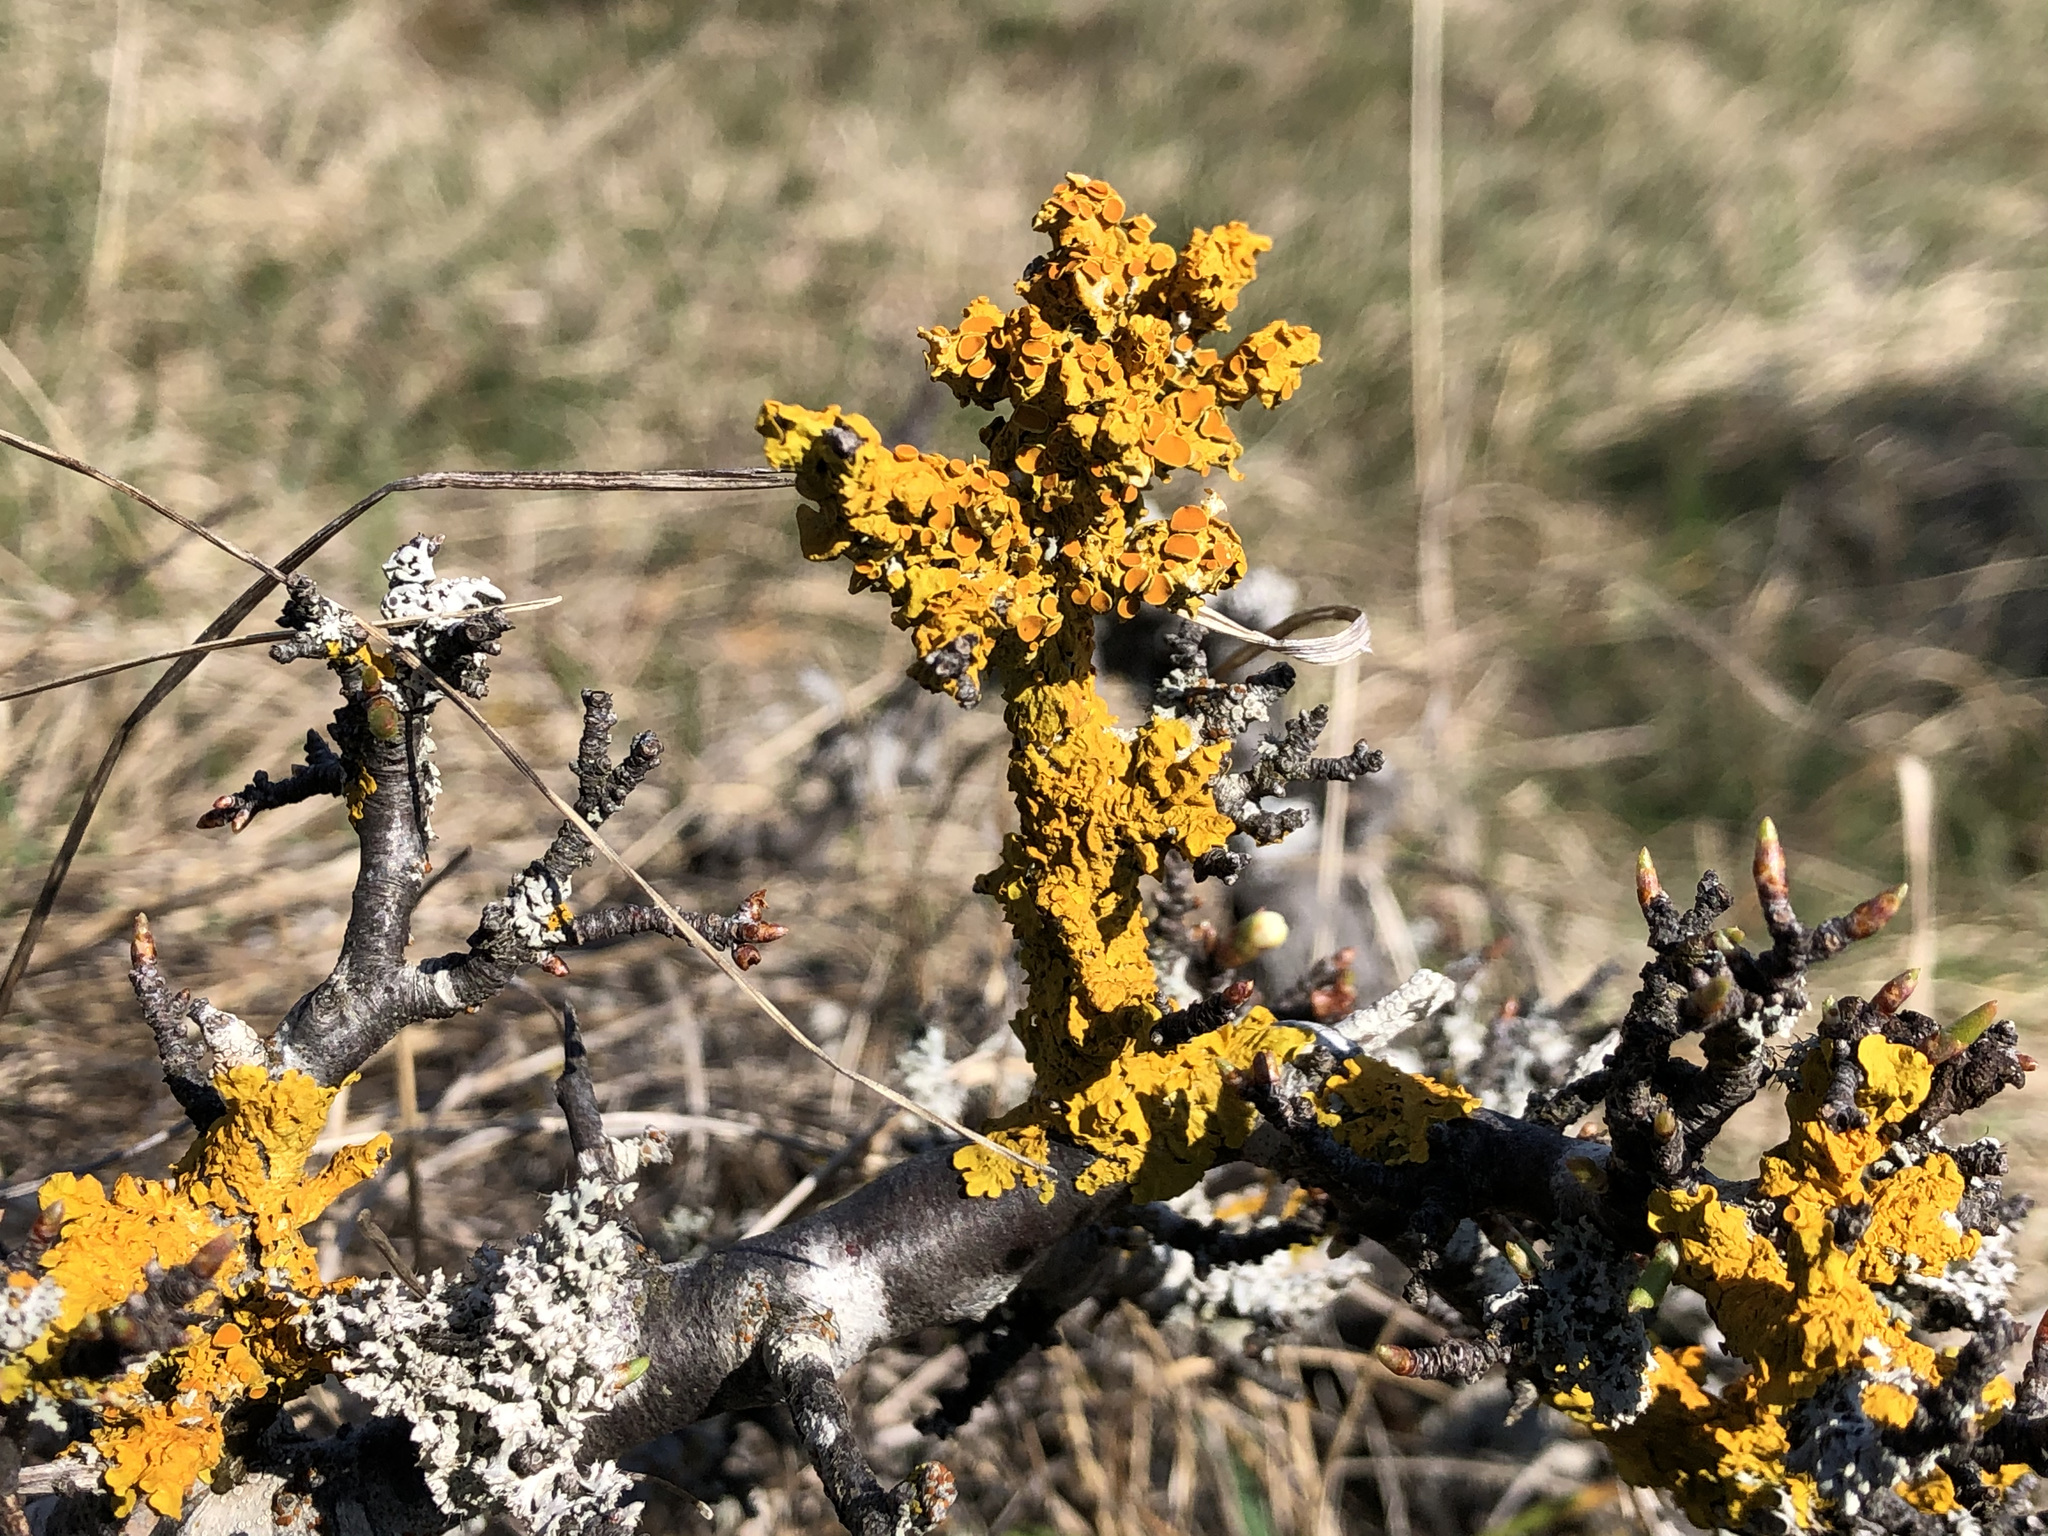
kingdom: Fungi
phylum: Ascomycota
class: Lecanoromycetes
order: Teloschistales
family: Teloschistaceae
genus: Xanthoria
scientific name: Xanthoria parietina
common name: Common orange lichen
